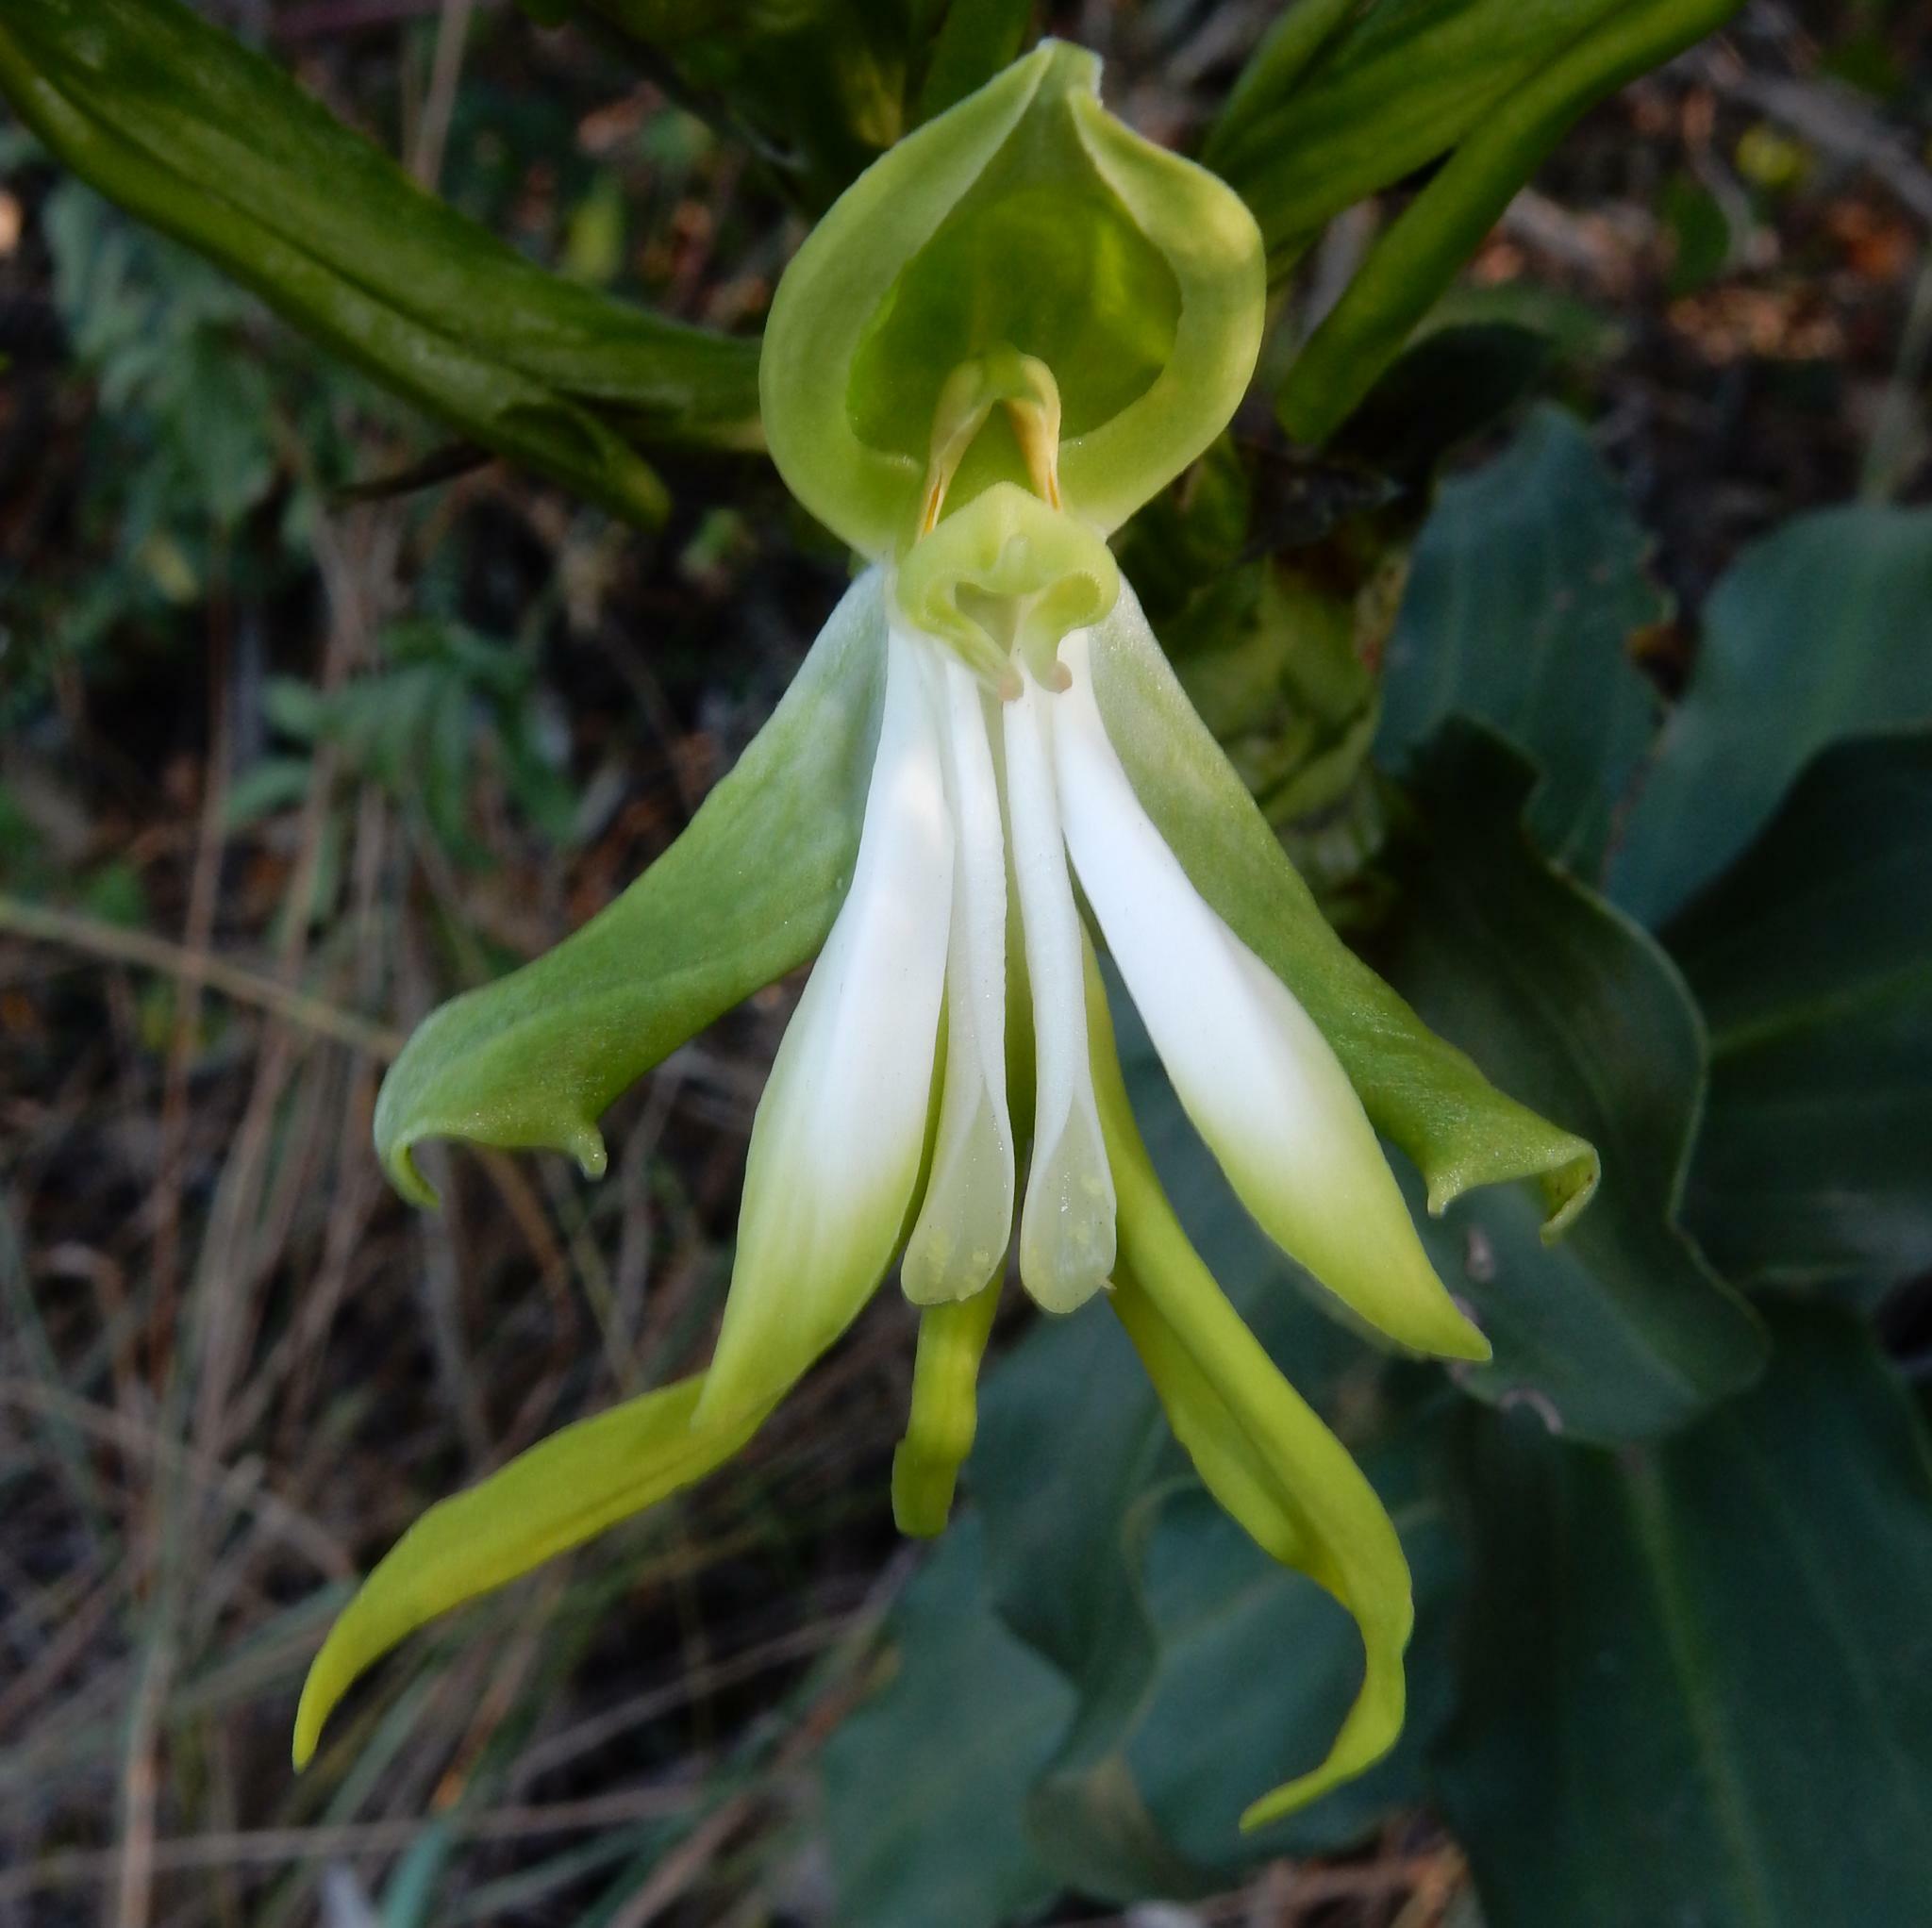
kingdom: Plantae
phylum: Tracheophyta
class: Liliopsida
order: Asparagales
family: Orchidaceae
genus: Bonatea
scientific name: Bonatea speciosa
